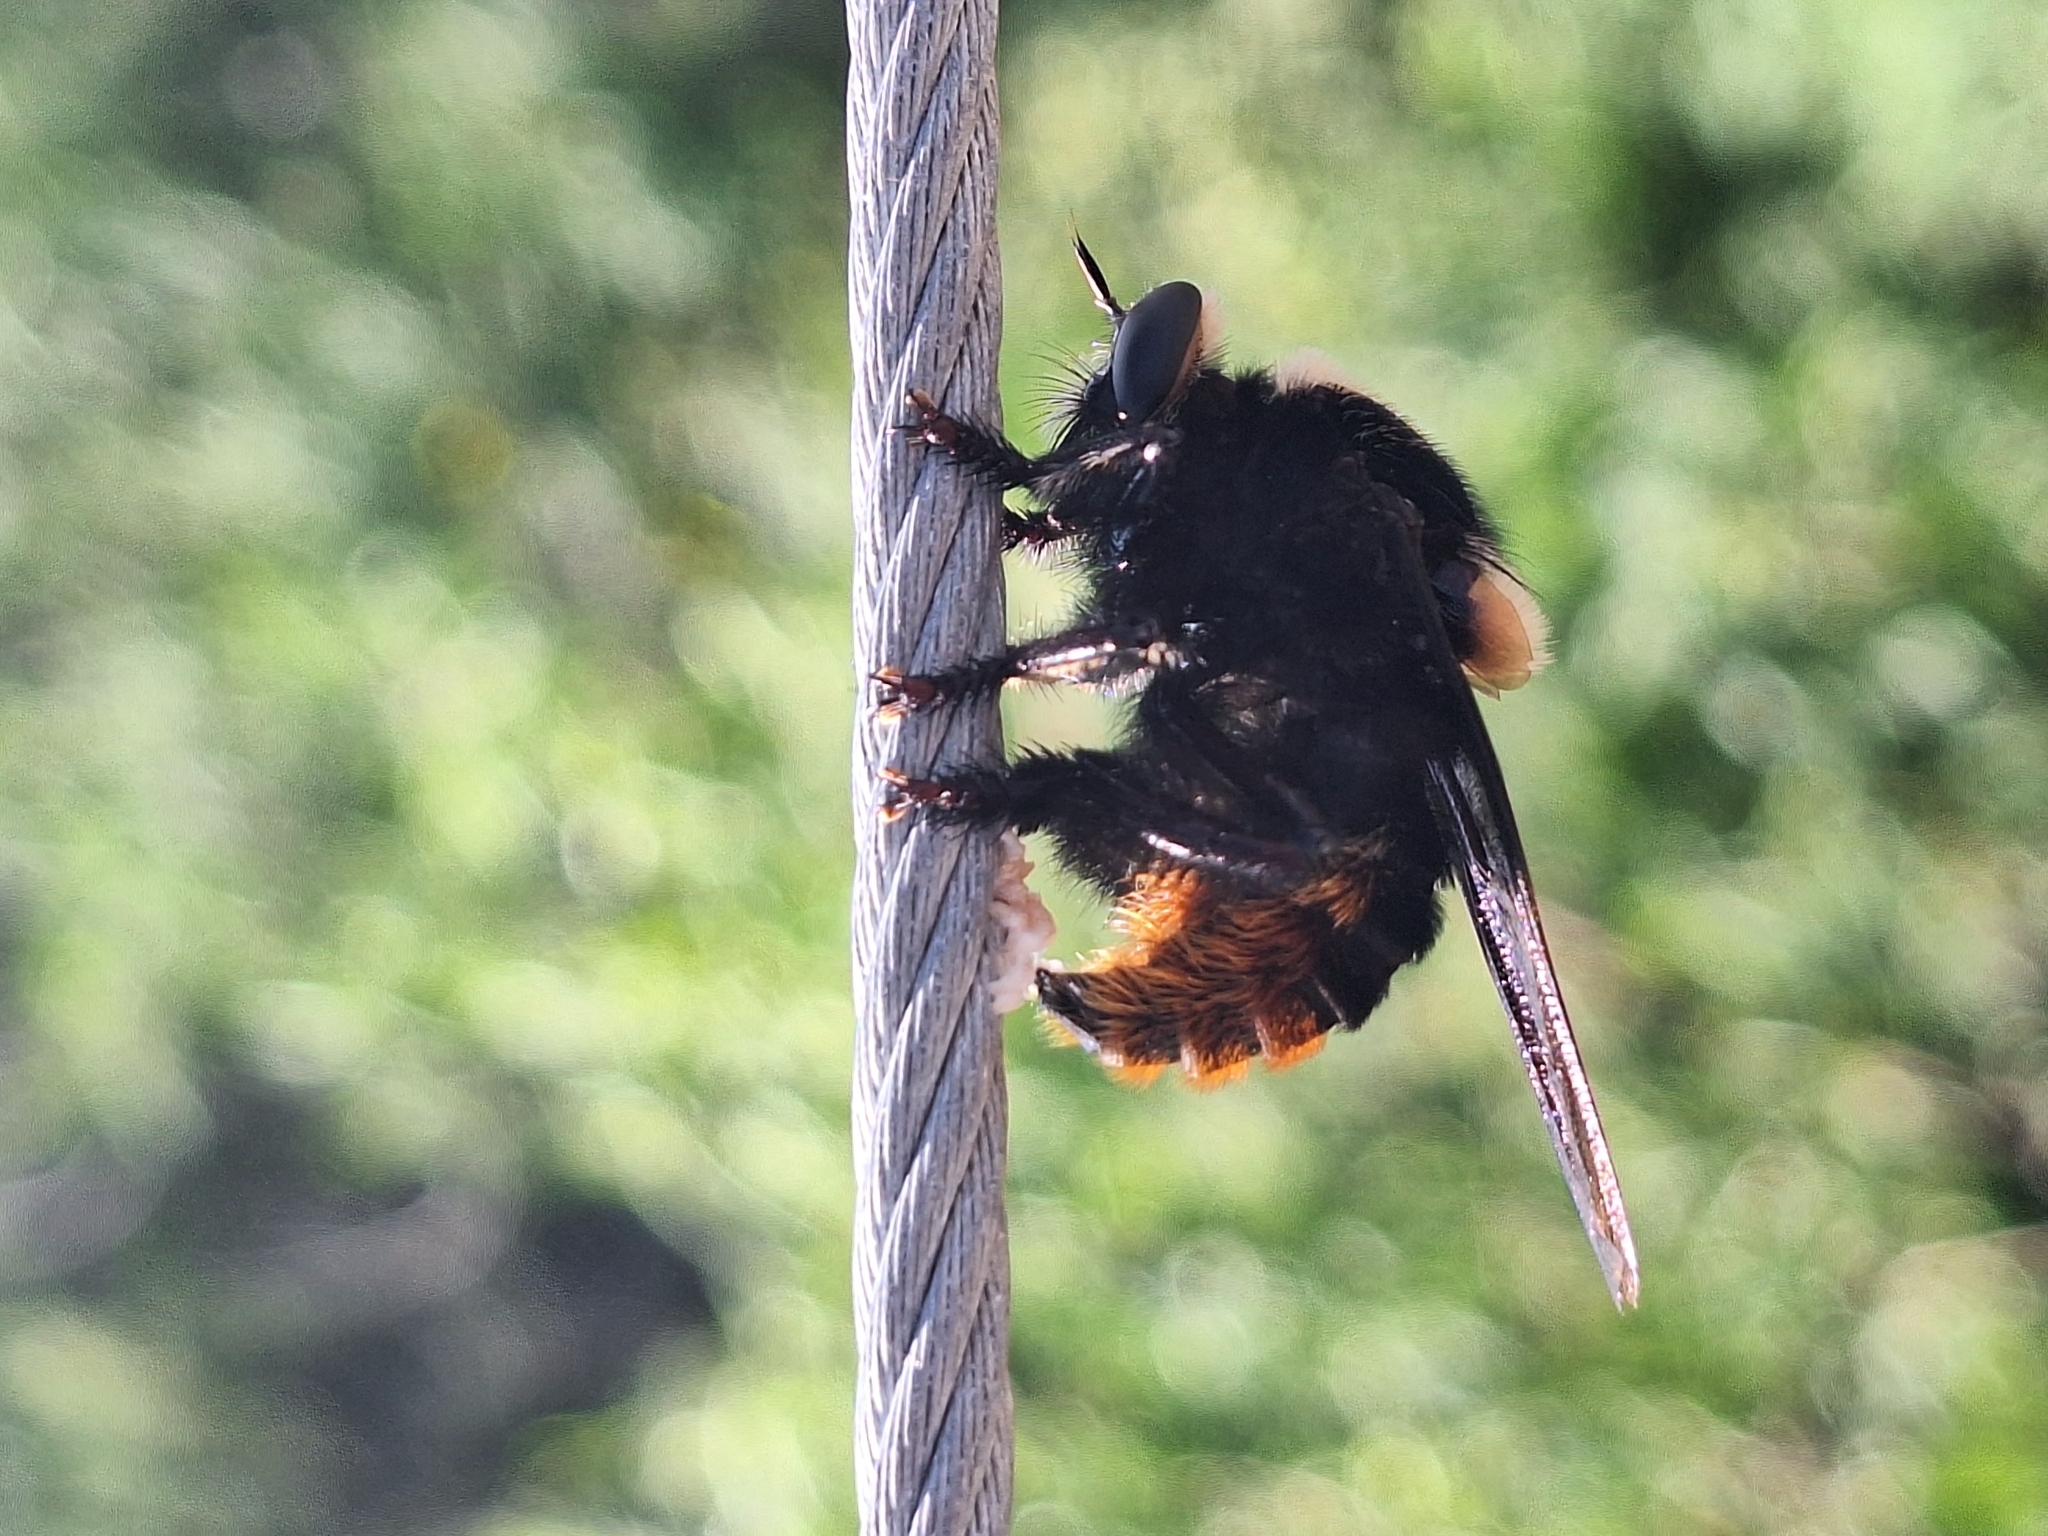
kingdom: Animalia
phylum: Arthropoda
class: Insecta
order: Diptera
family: Asilidae
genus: Mallophora
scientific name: Mallophora ruficauda
